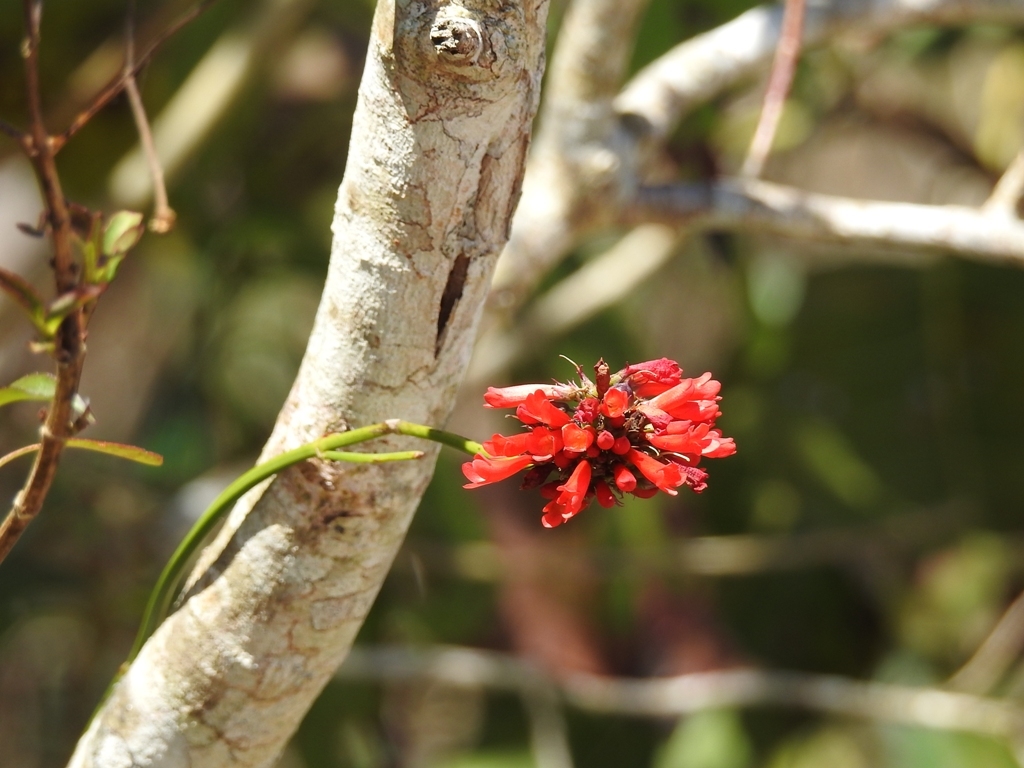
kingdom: Plantae
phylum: Tracheophyta
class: Magnoliopsida
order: Lamiales
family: Plantaginaceae
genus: Russelia
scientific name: Russelia coccinea
